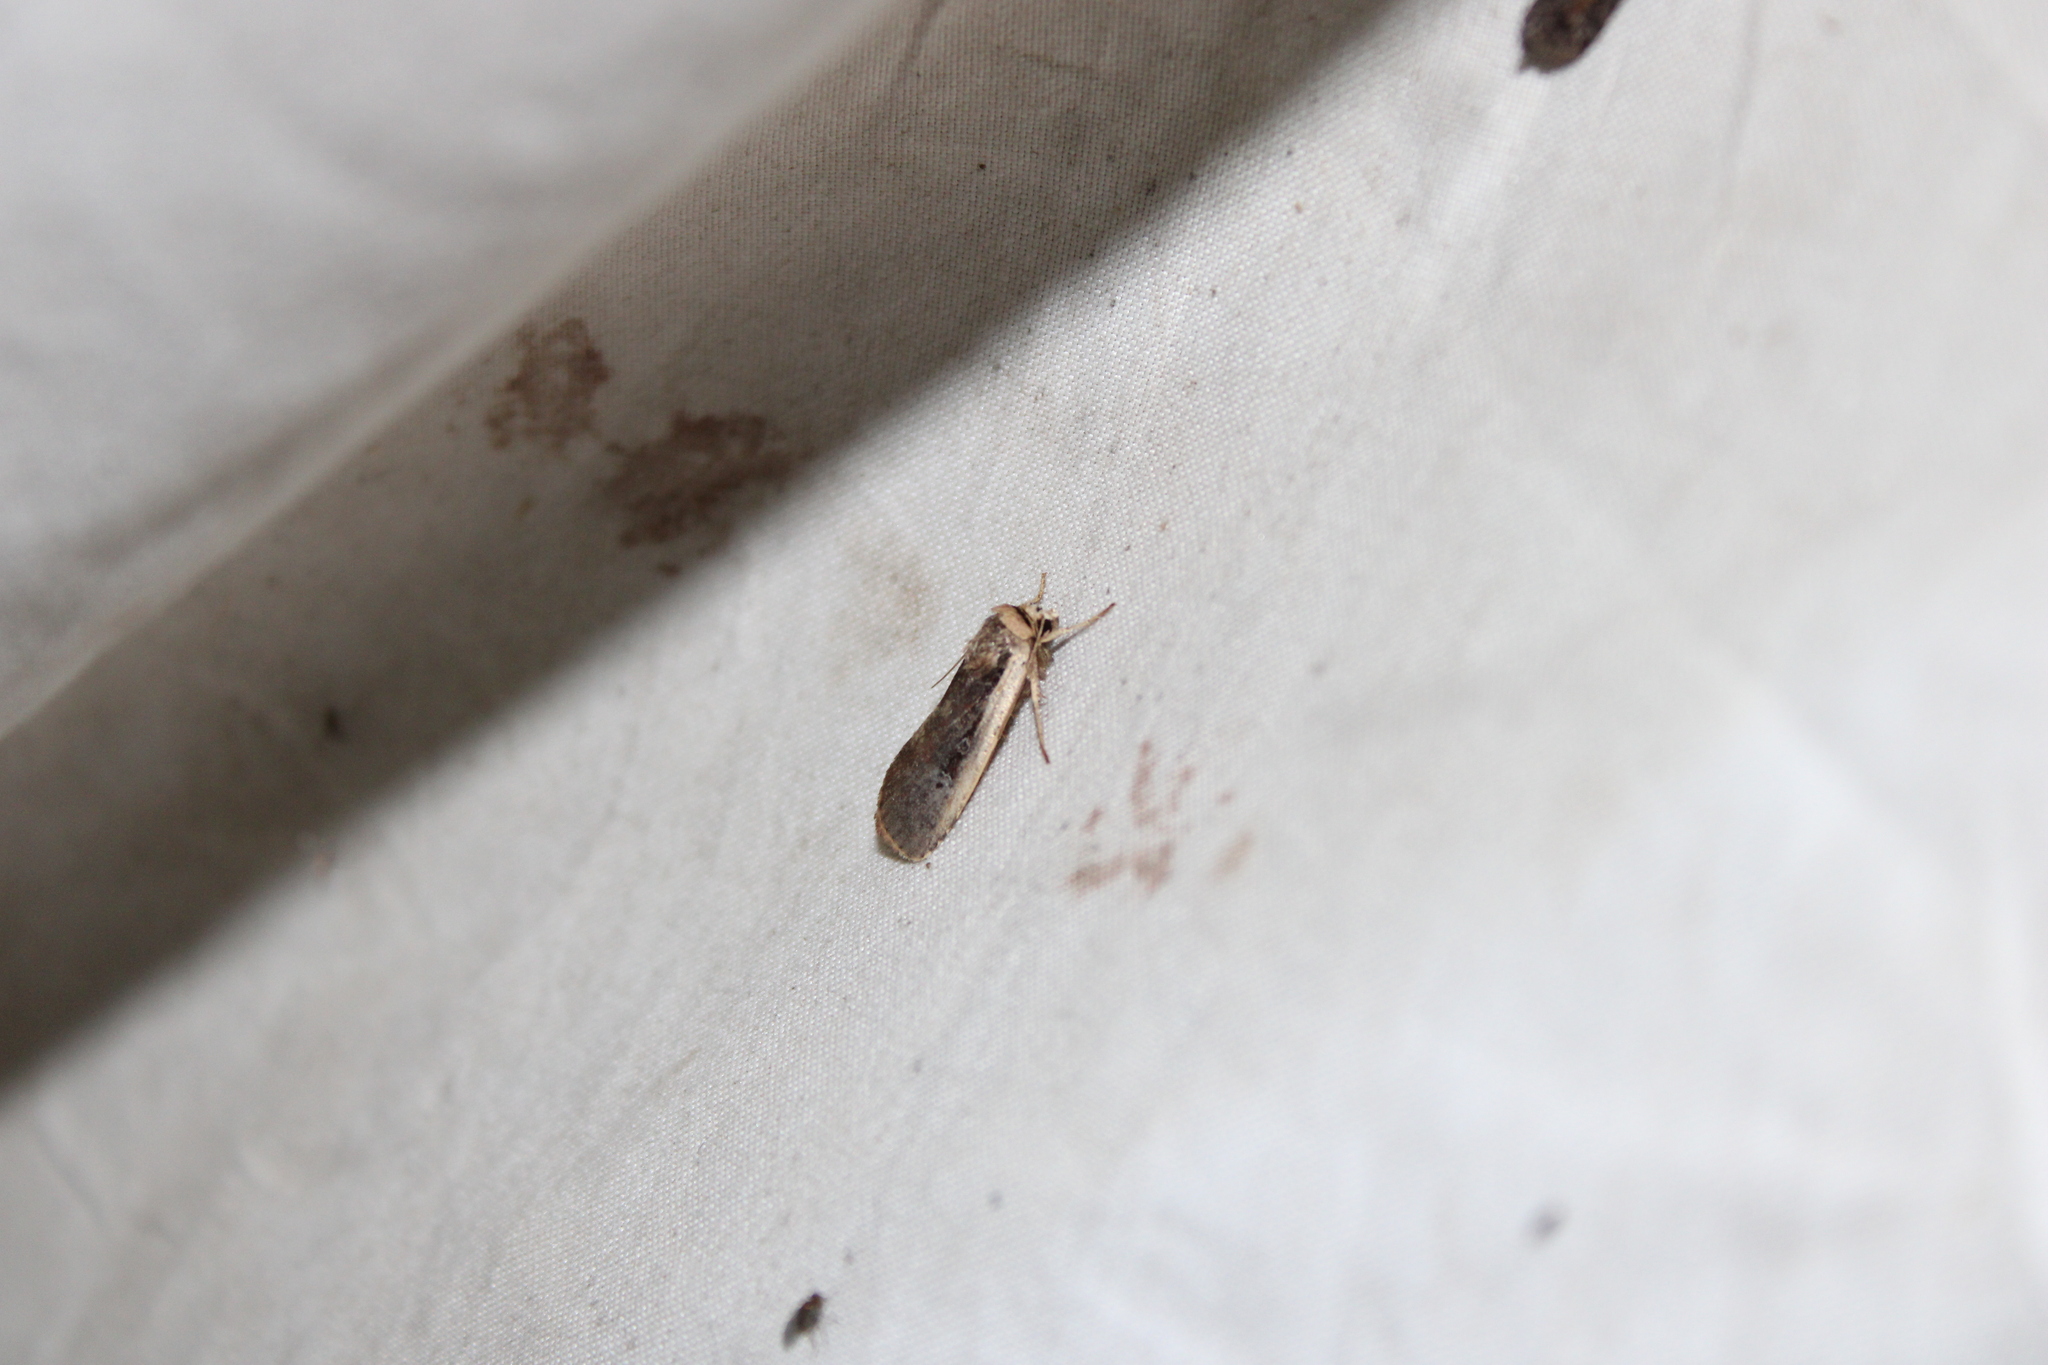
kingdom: Animalia
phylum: Arthropoda
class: Insecta
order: Lepidoptera
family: Noctuidae
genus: Ochropleura
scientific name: Ochropleura implecta
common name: Flame-shouldered dart
